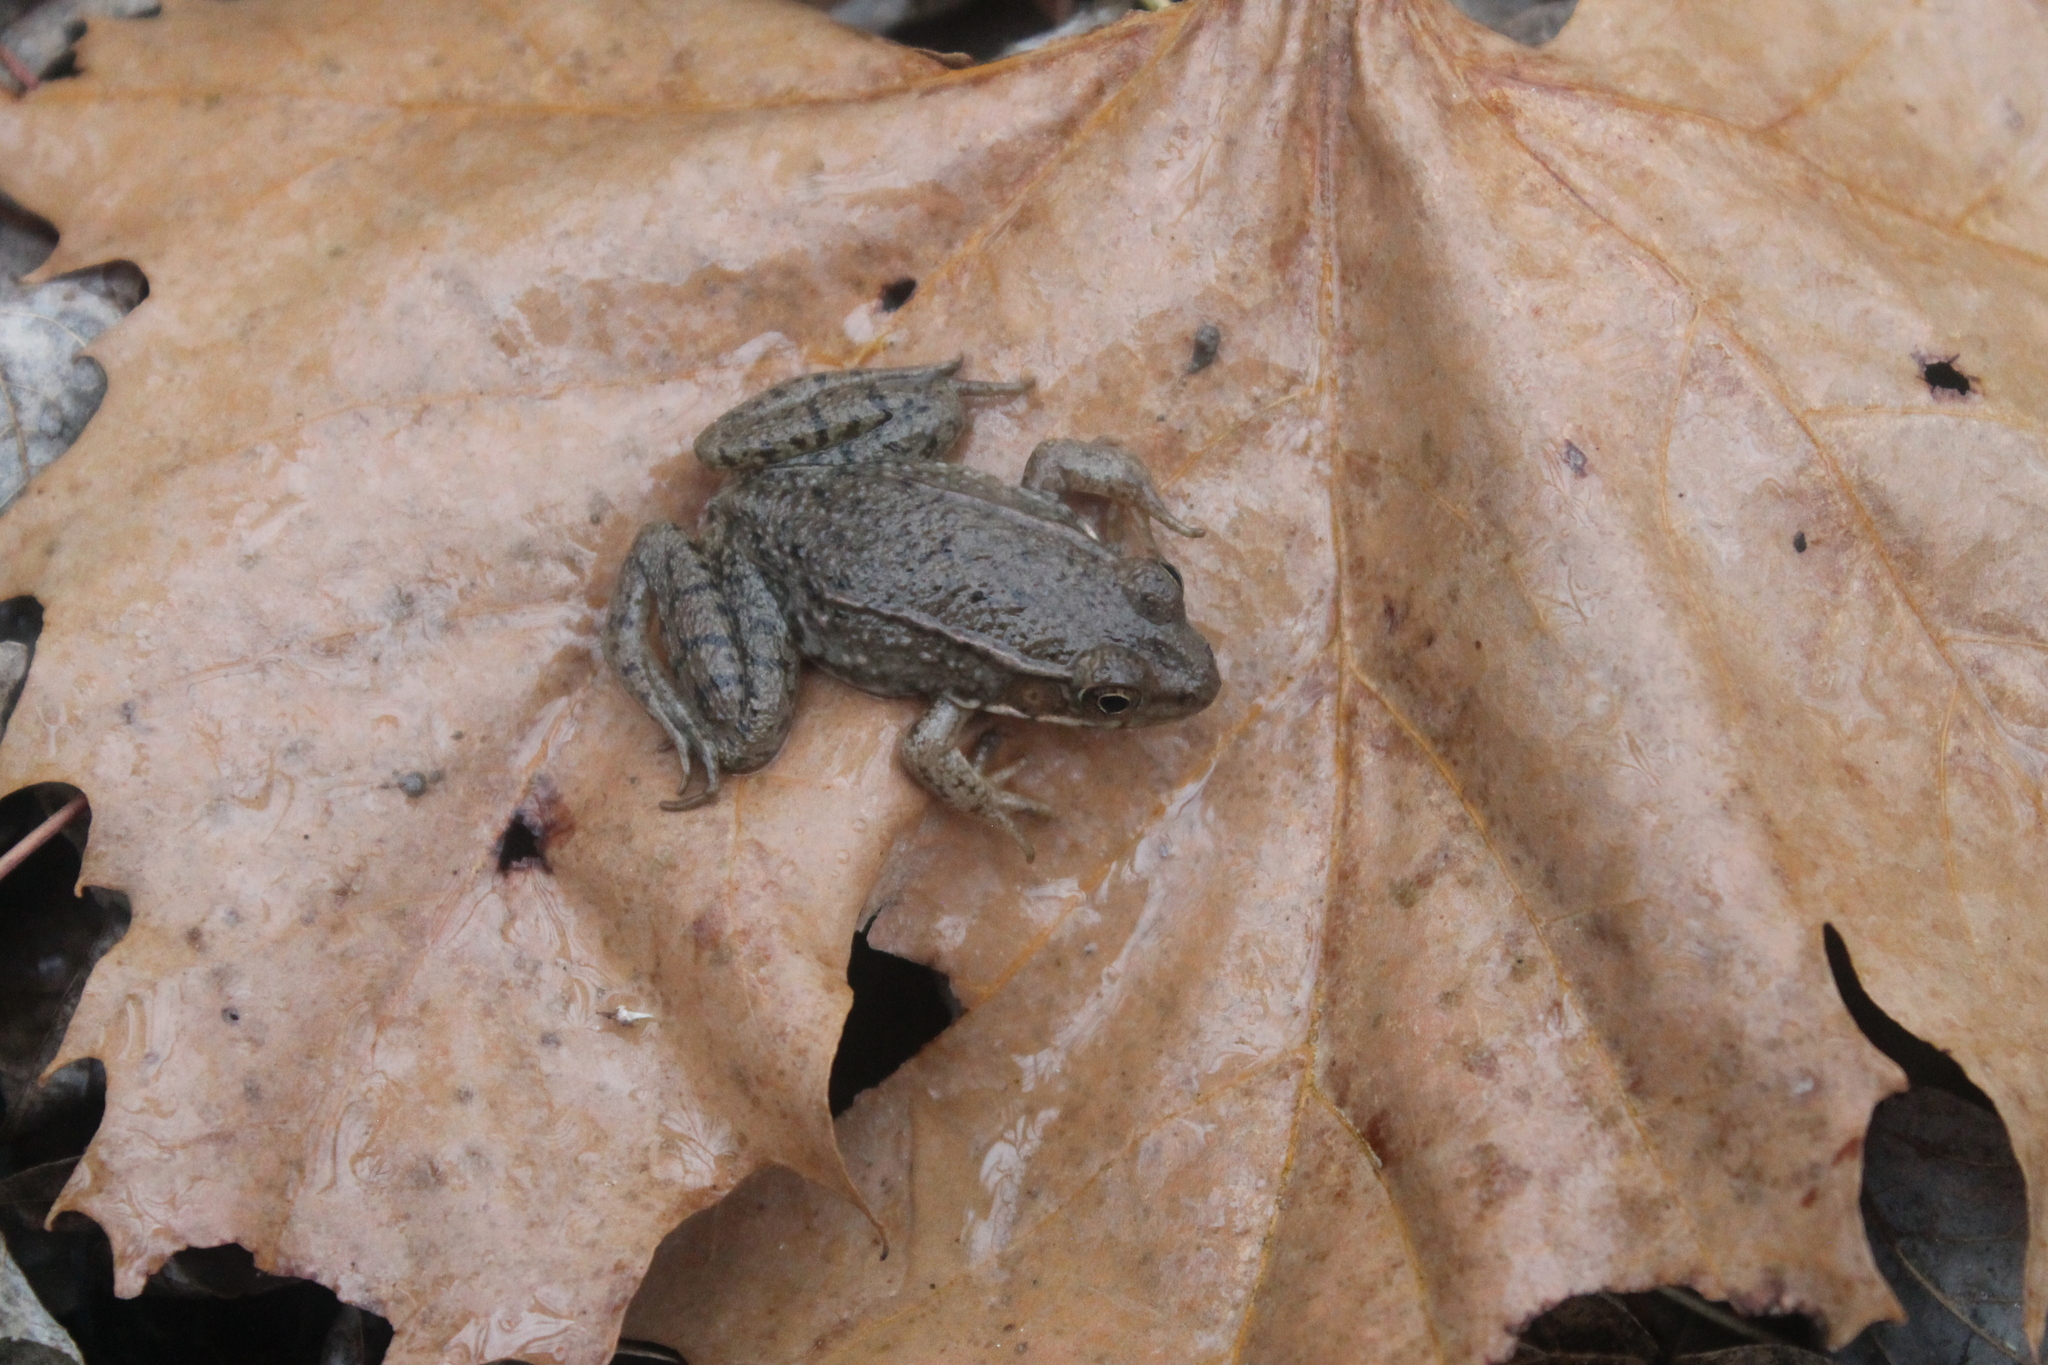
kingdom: Animalia
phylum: Chordata
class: Amphibia
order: Anura
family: Ranidae
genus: Lithobates
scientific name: Lithobates clamitans
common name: Green frog
